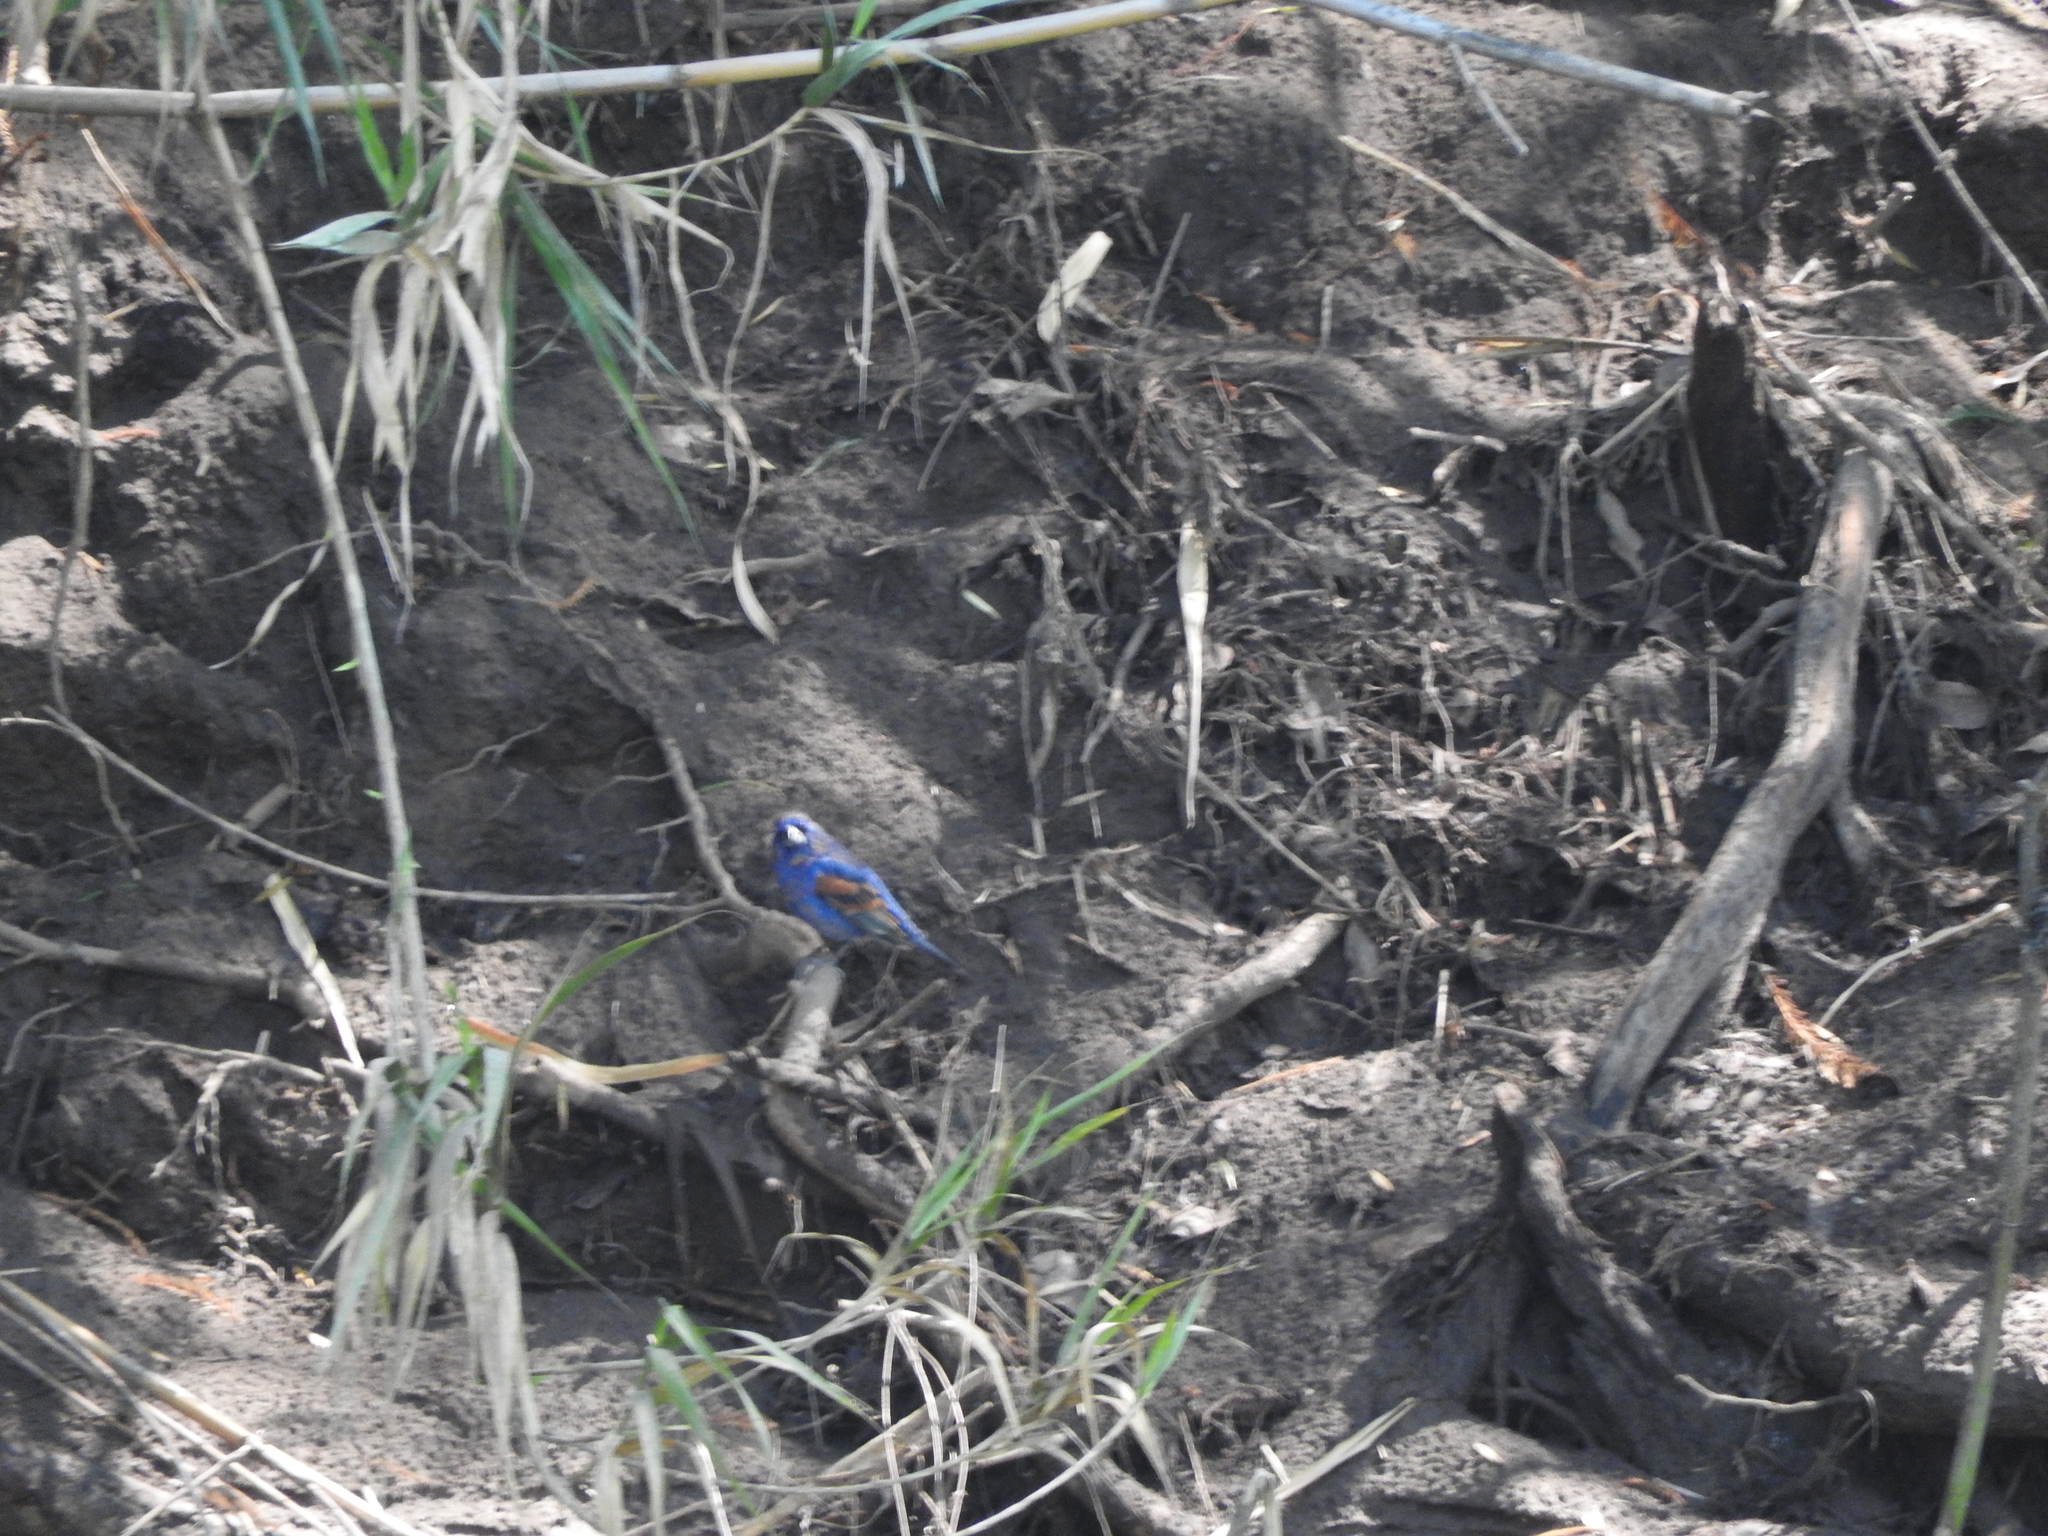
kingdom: Animalia
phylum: Chordata
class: Aves
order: Passeriformes
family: Cardinalidae
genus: Passerina
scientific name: Passerina caerulea
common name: Blue grosbeak
